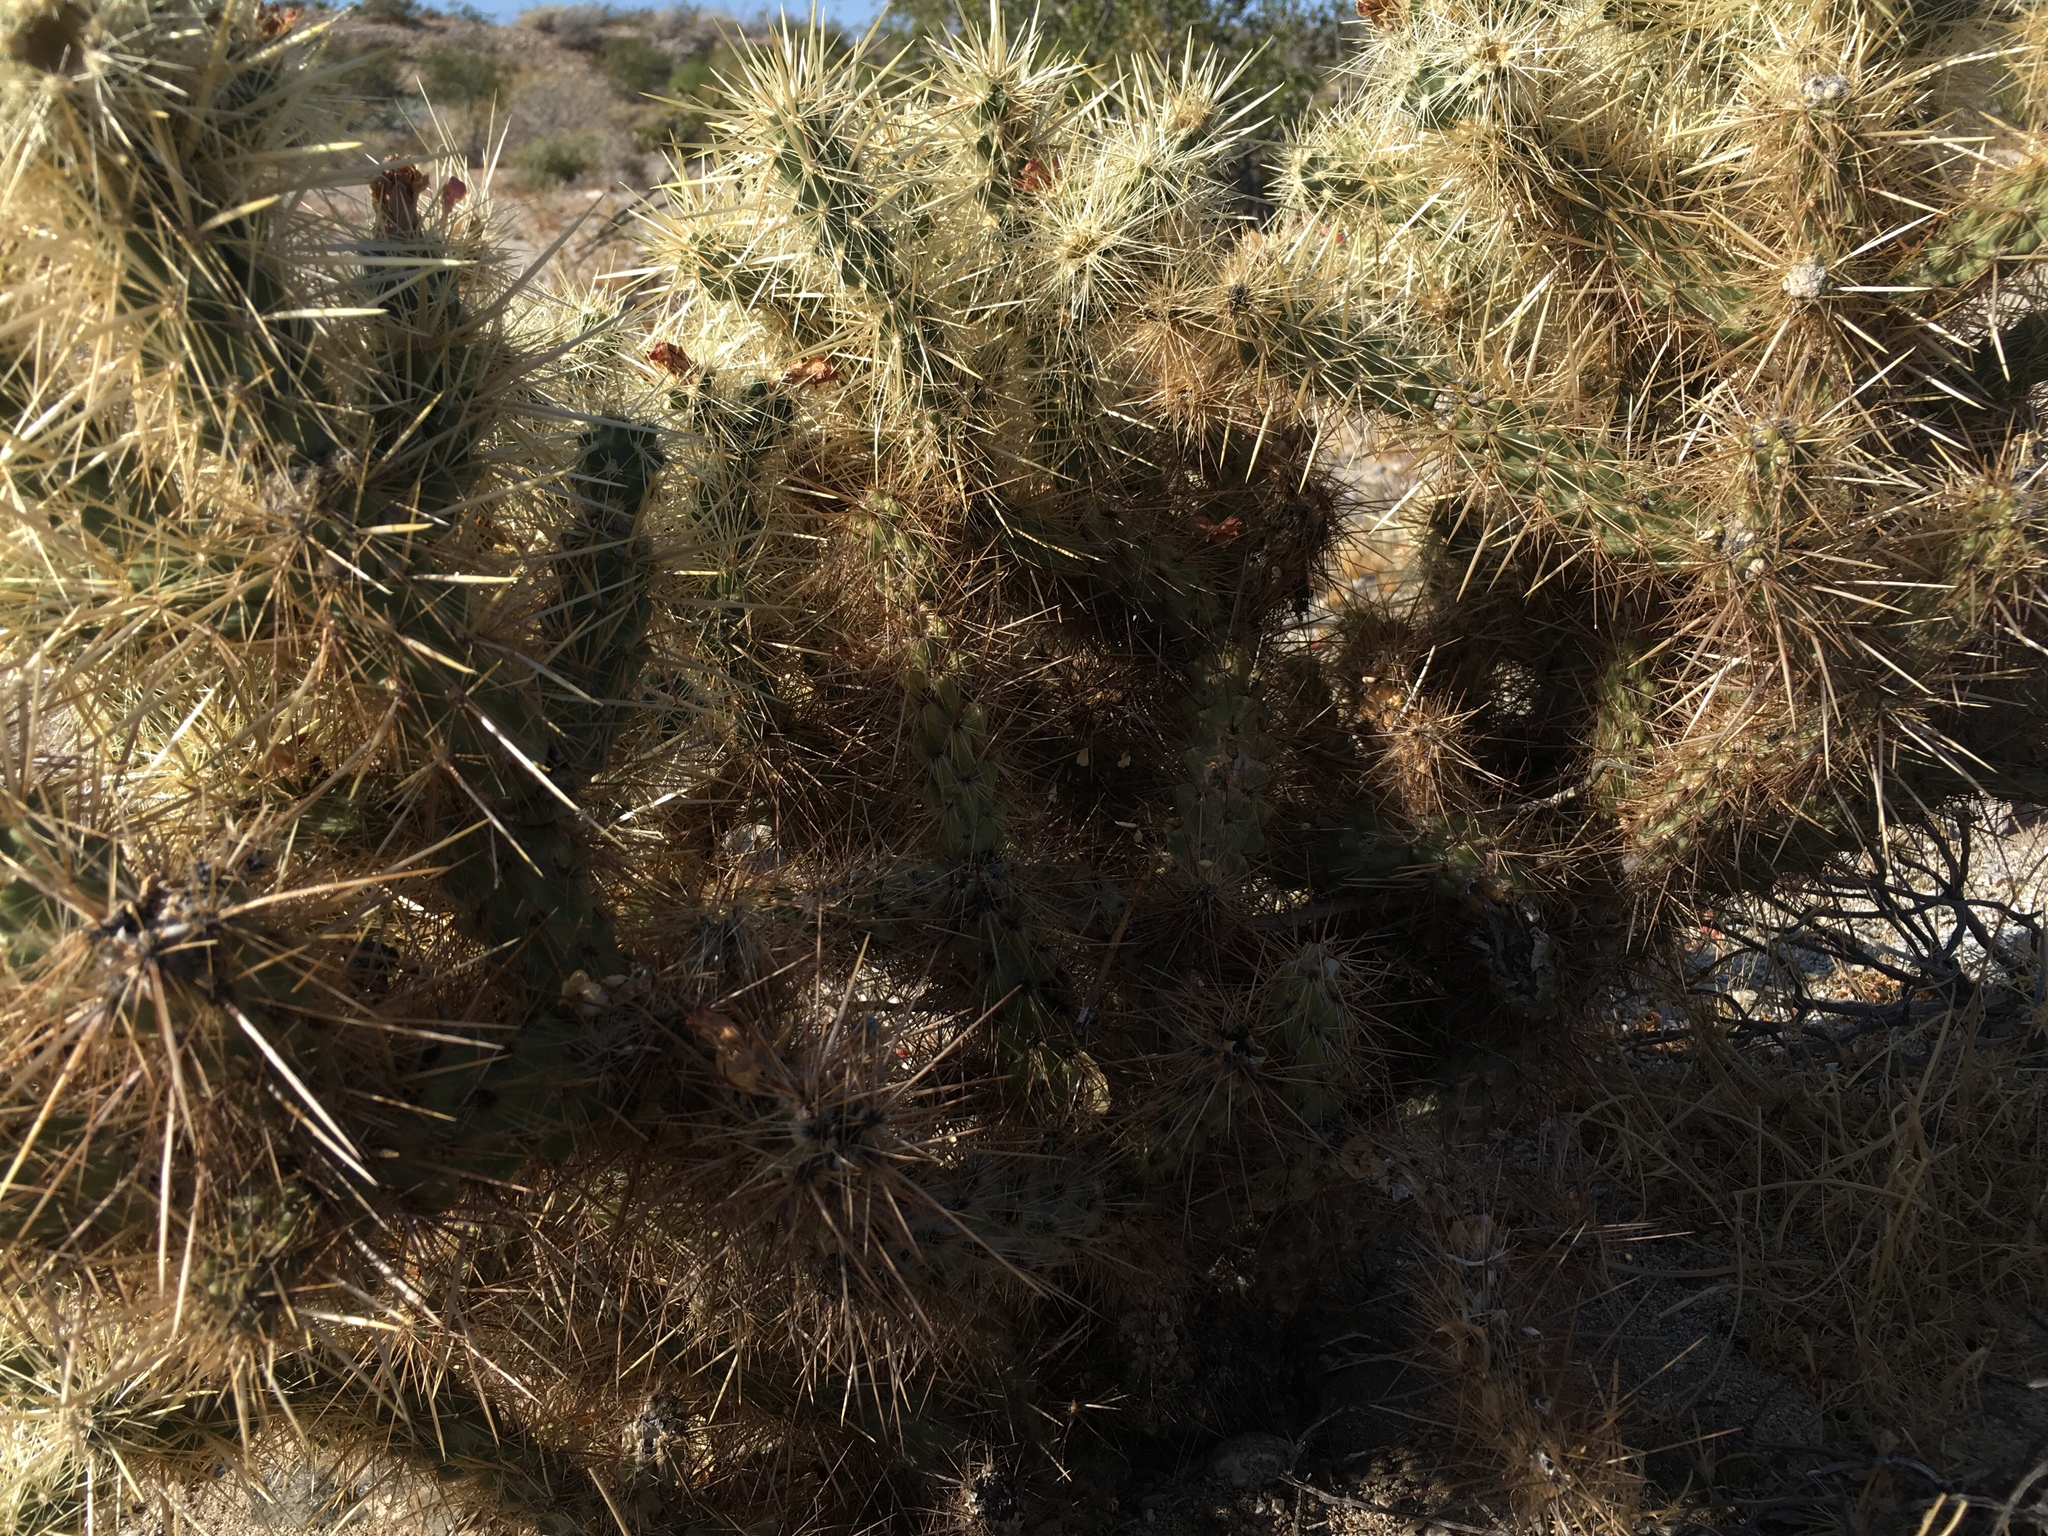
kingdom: Plantae
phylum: Tracheophyta
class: Magnoliopsida
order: Caryophyllales
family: Cactaceae
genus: Cylindropuntia
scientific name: Cylindropuntia echinocarpa
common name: Ground cholla
